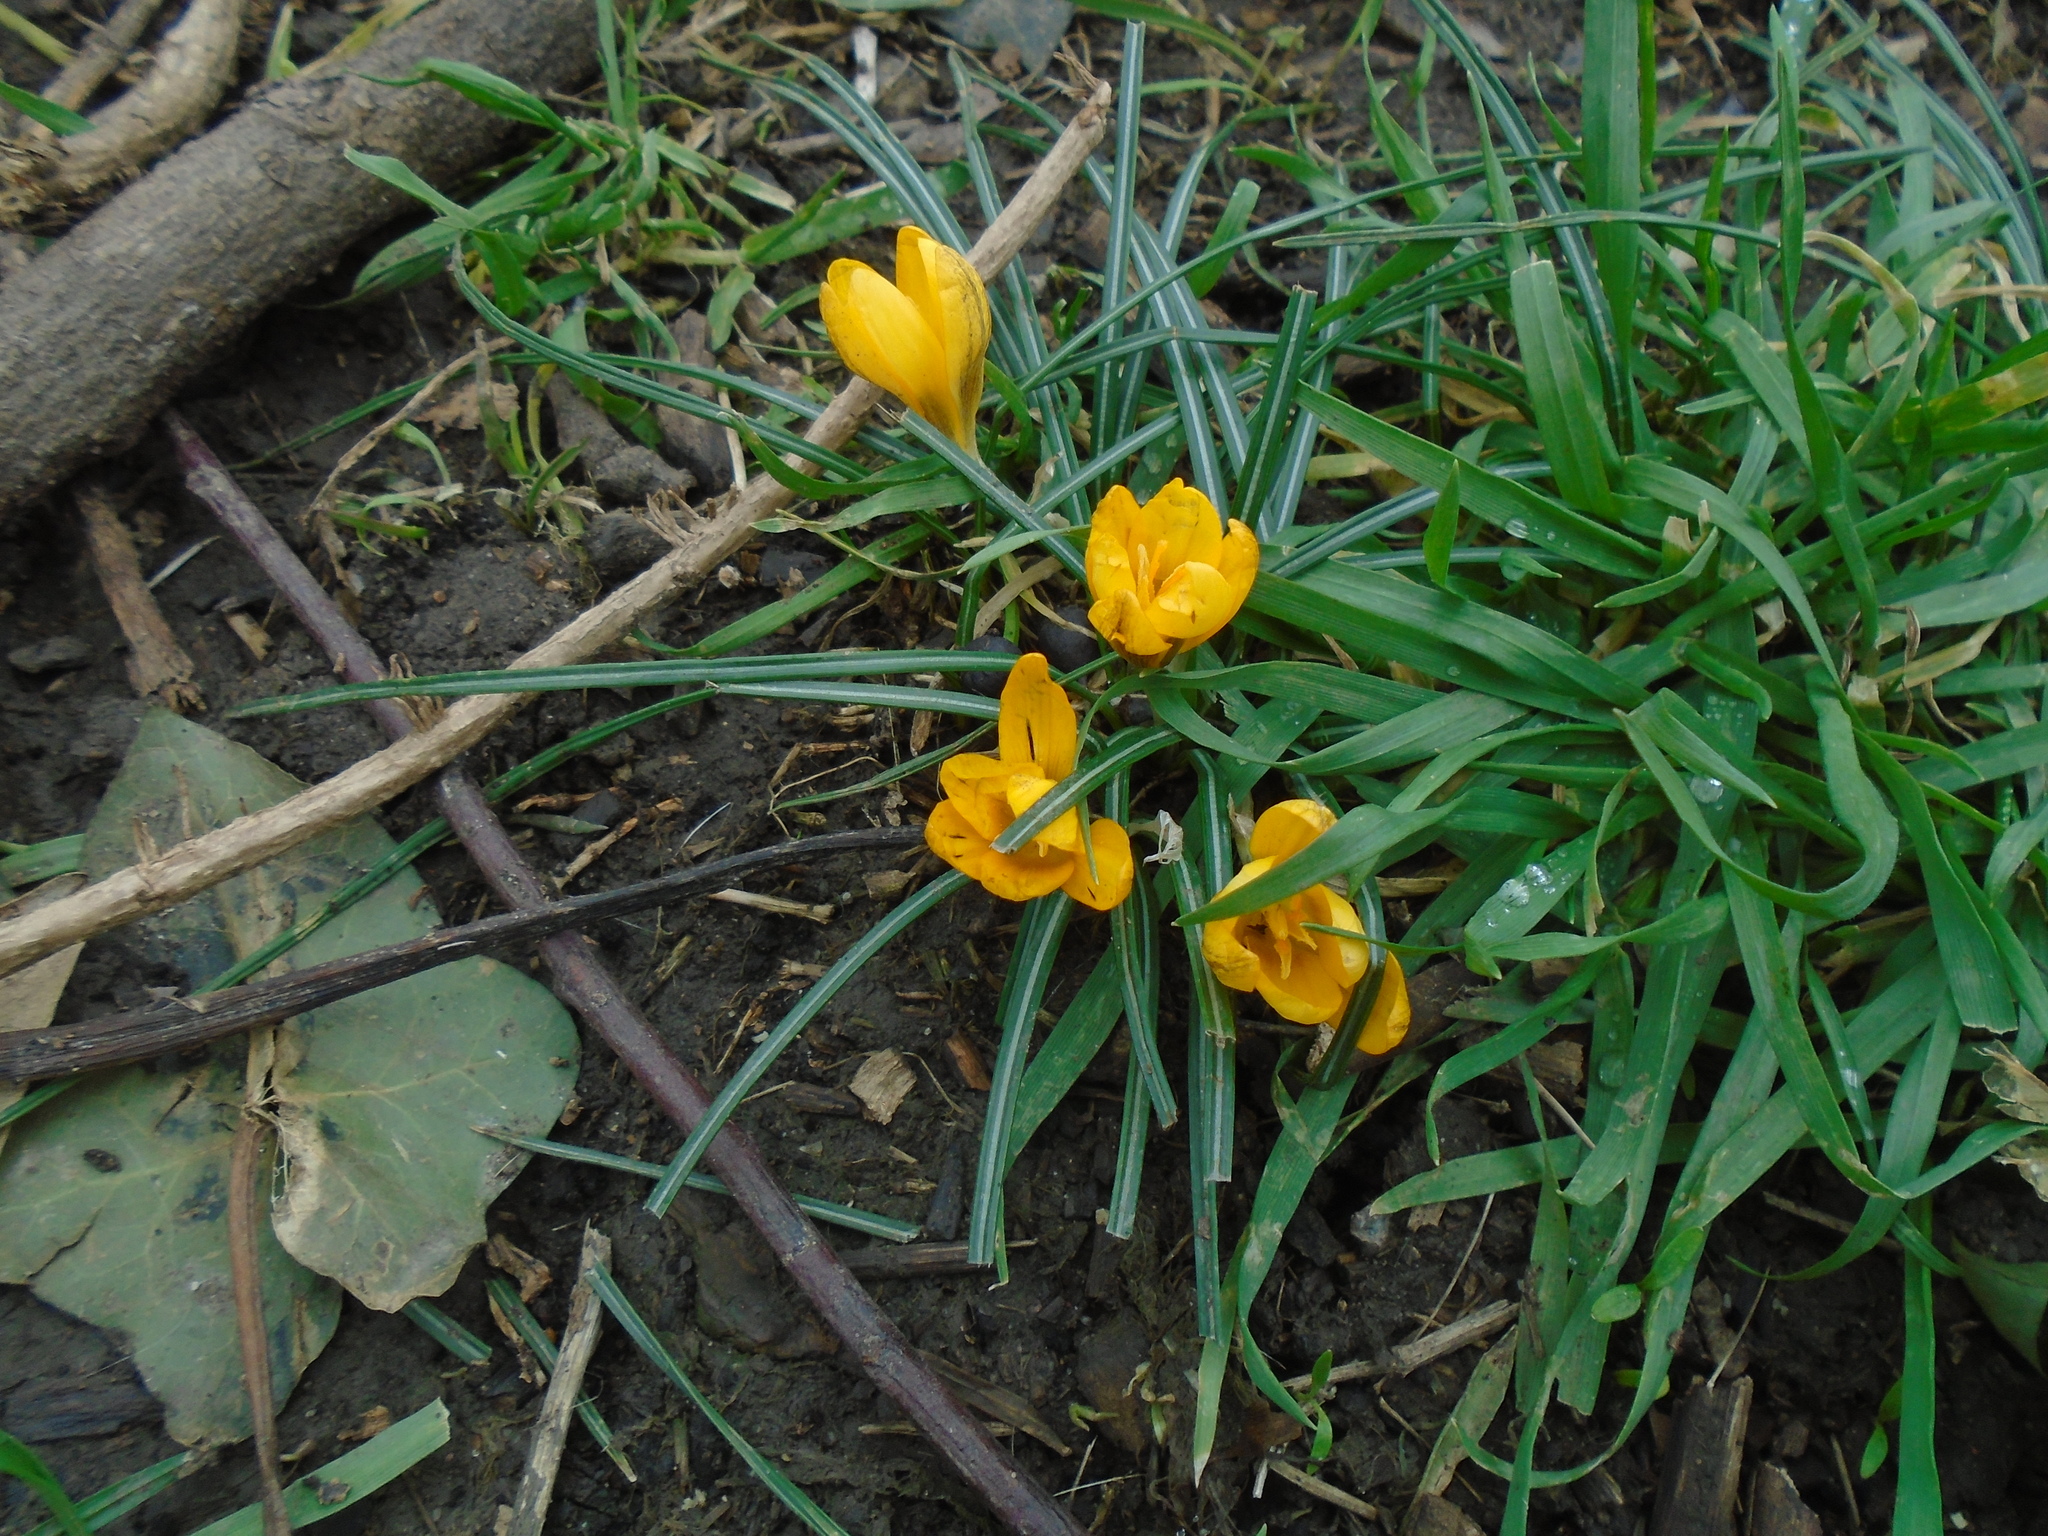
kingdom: Plantae
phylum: Tracheophyta
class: Liliopsida
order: Asparagales
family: Iridaceae
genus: Crocus
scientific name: Crocus chrysanthus
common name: Golden crocus
